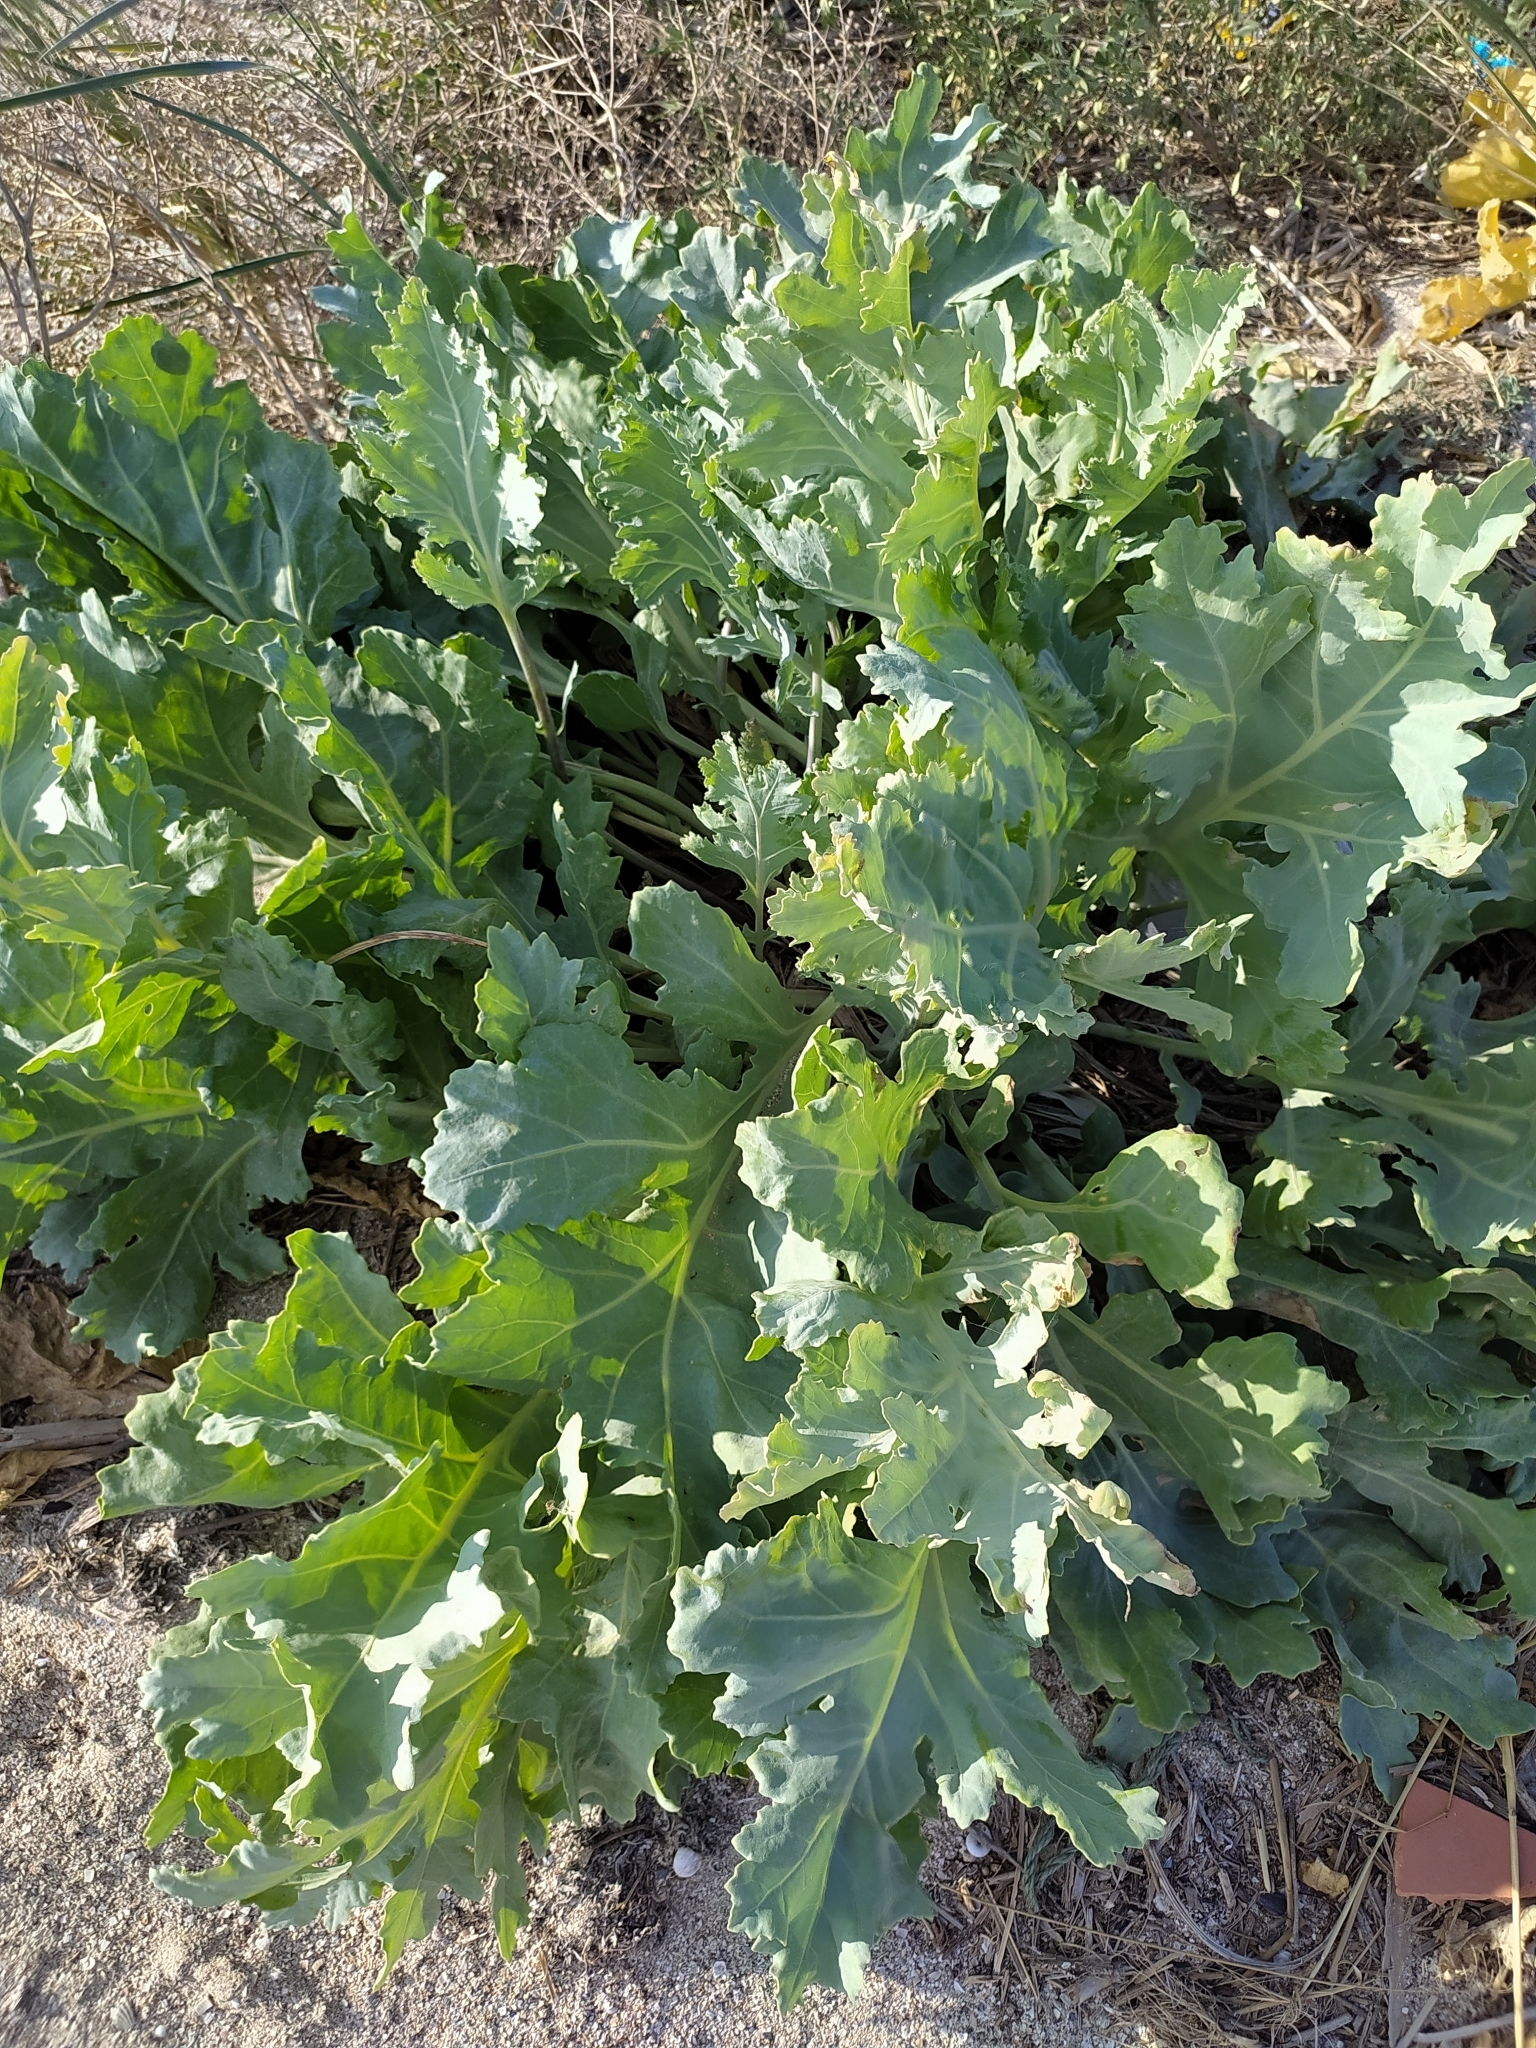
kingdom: Plantae
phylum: Tracheophyta
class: Magnoliopsida
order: Brassicales
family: Brassicaceae
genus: Crambe
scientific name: Crambe maritima
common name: Sea-kale
